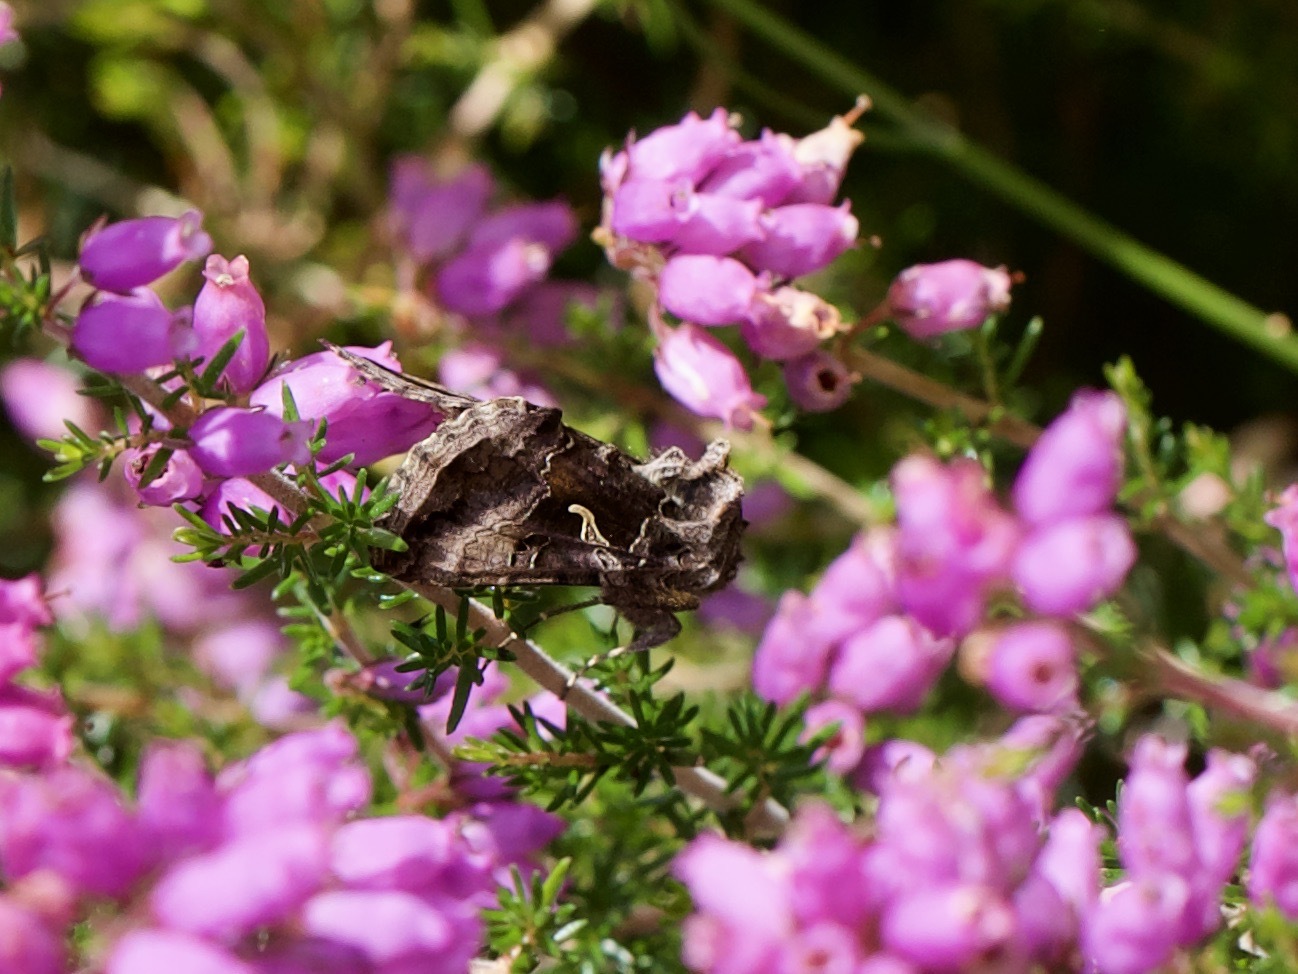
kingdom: Animalia
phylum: Arthropoda
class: Insecta
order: Lepidoptera
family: Noctuidae
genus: Autographa
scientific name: Autographa gamma
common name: Silver y
